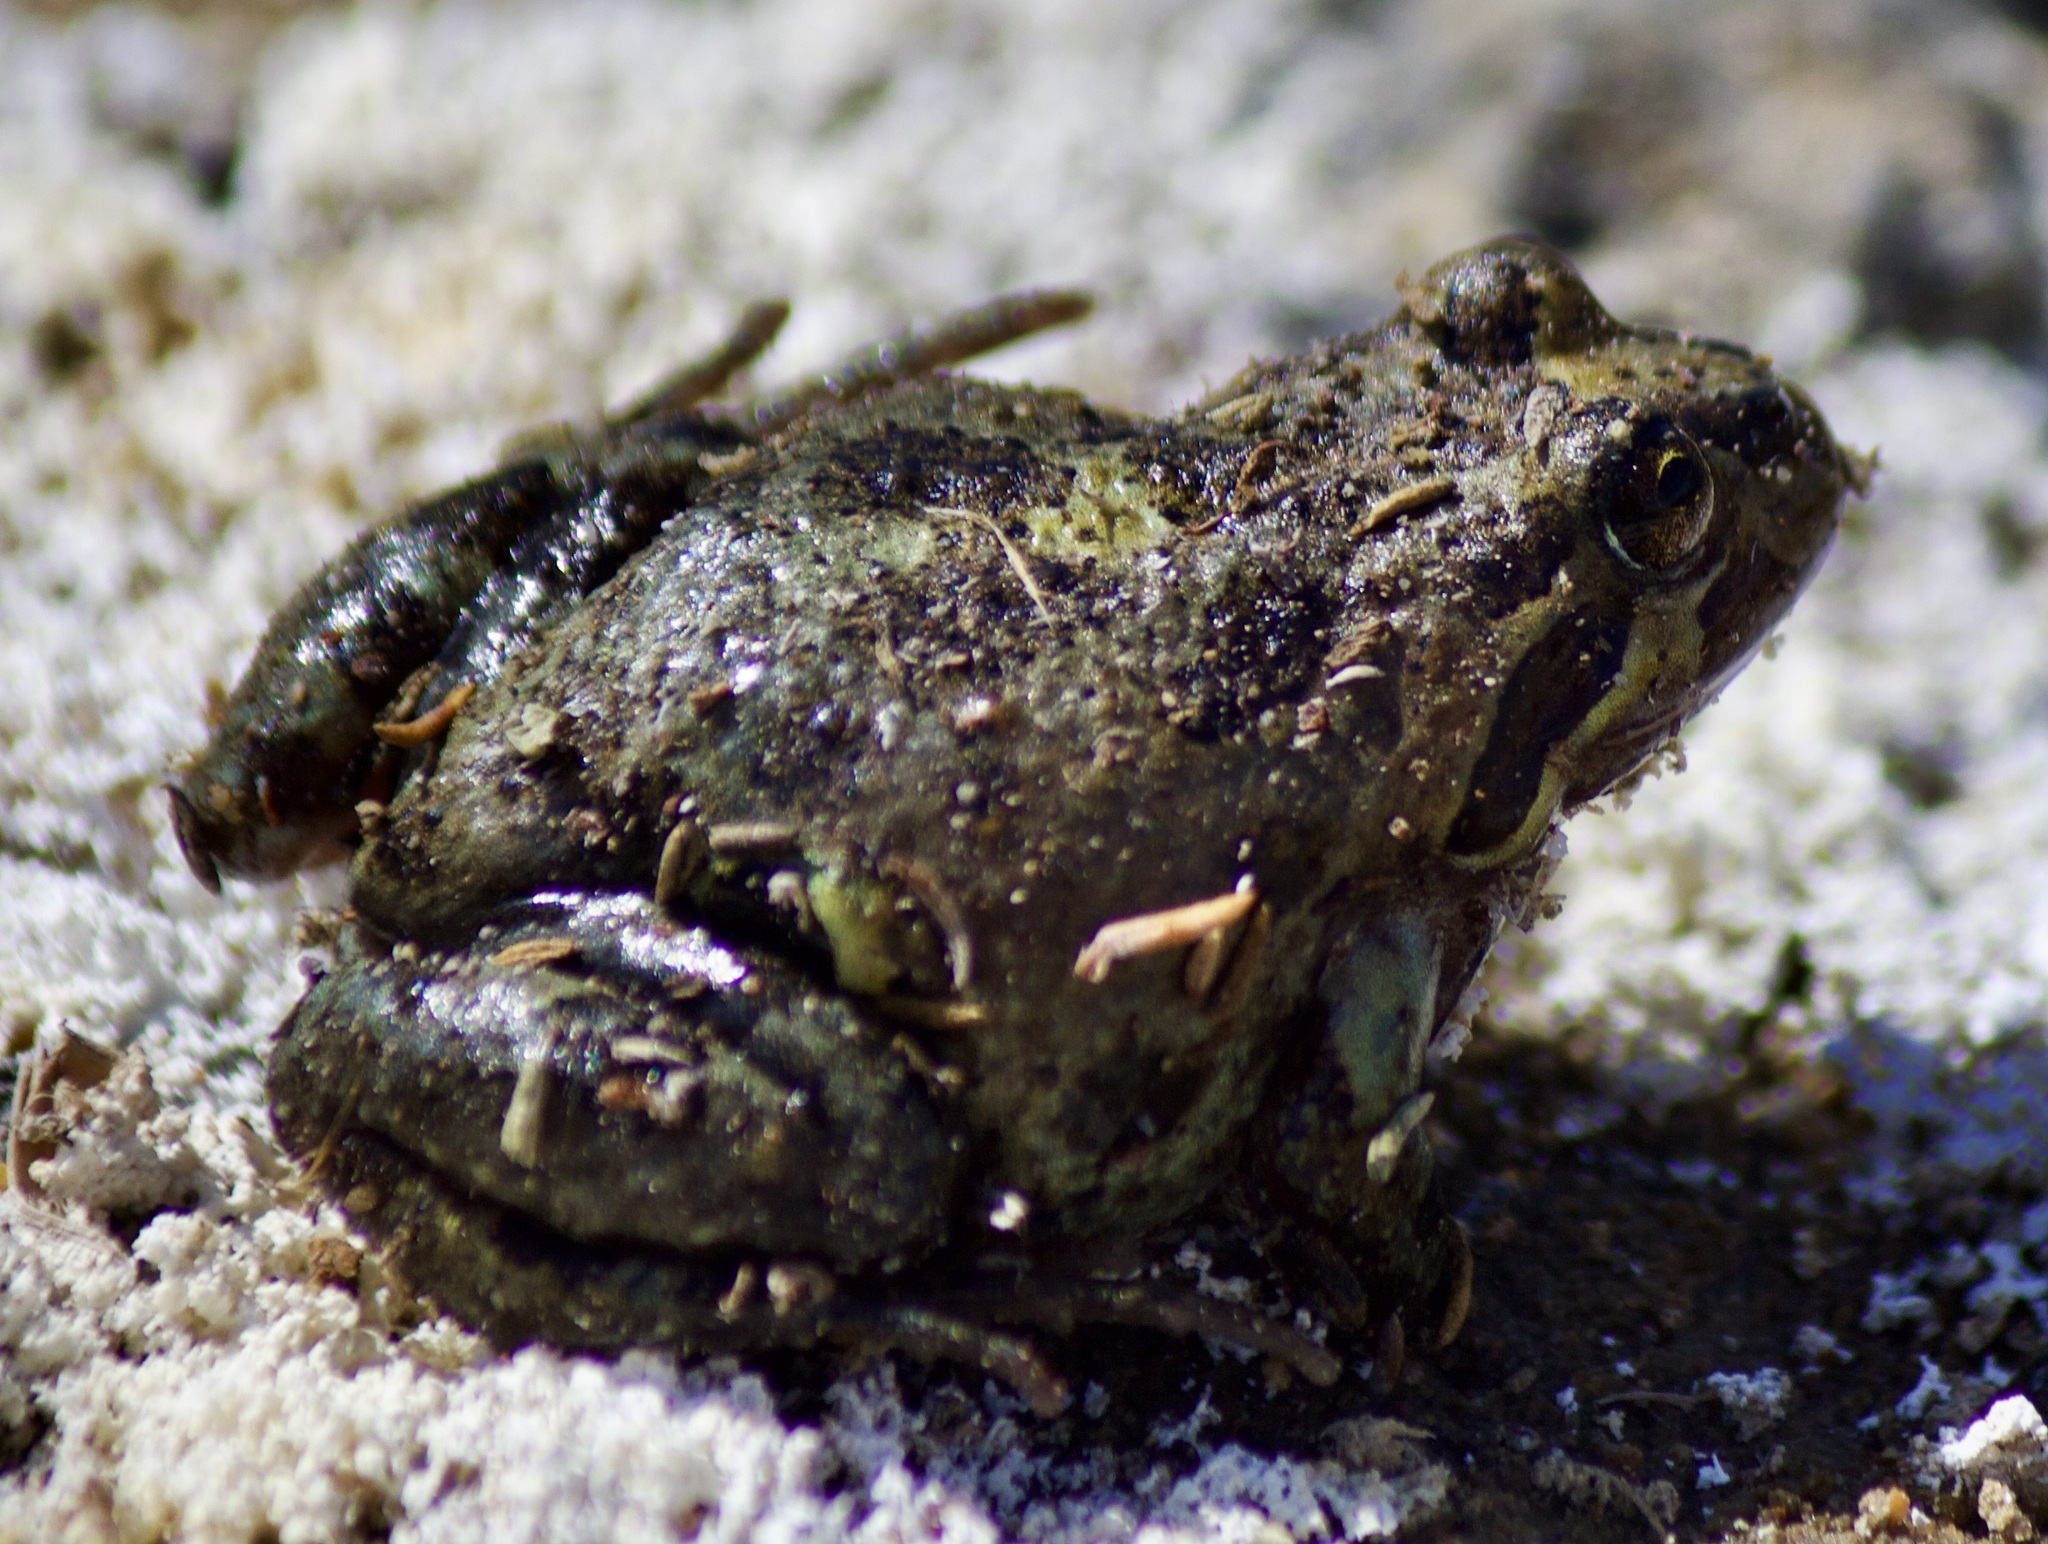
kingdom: Animalia
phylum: Chordata
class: Amphibia
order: Anura
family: Leptodactylidae
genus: Pleurodema
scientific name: Pleurodema thaul
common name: Chile four-eyed frog
